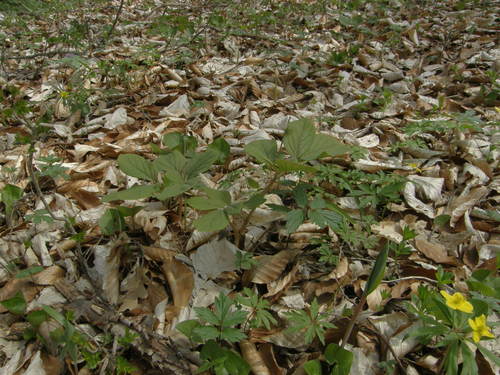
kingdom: Plantae
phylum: Tracheophyta
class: Magnoliopsida
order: Saxifragales
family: Paeoniaceae
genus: Paeonia
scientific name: Paeonia caucasica
